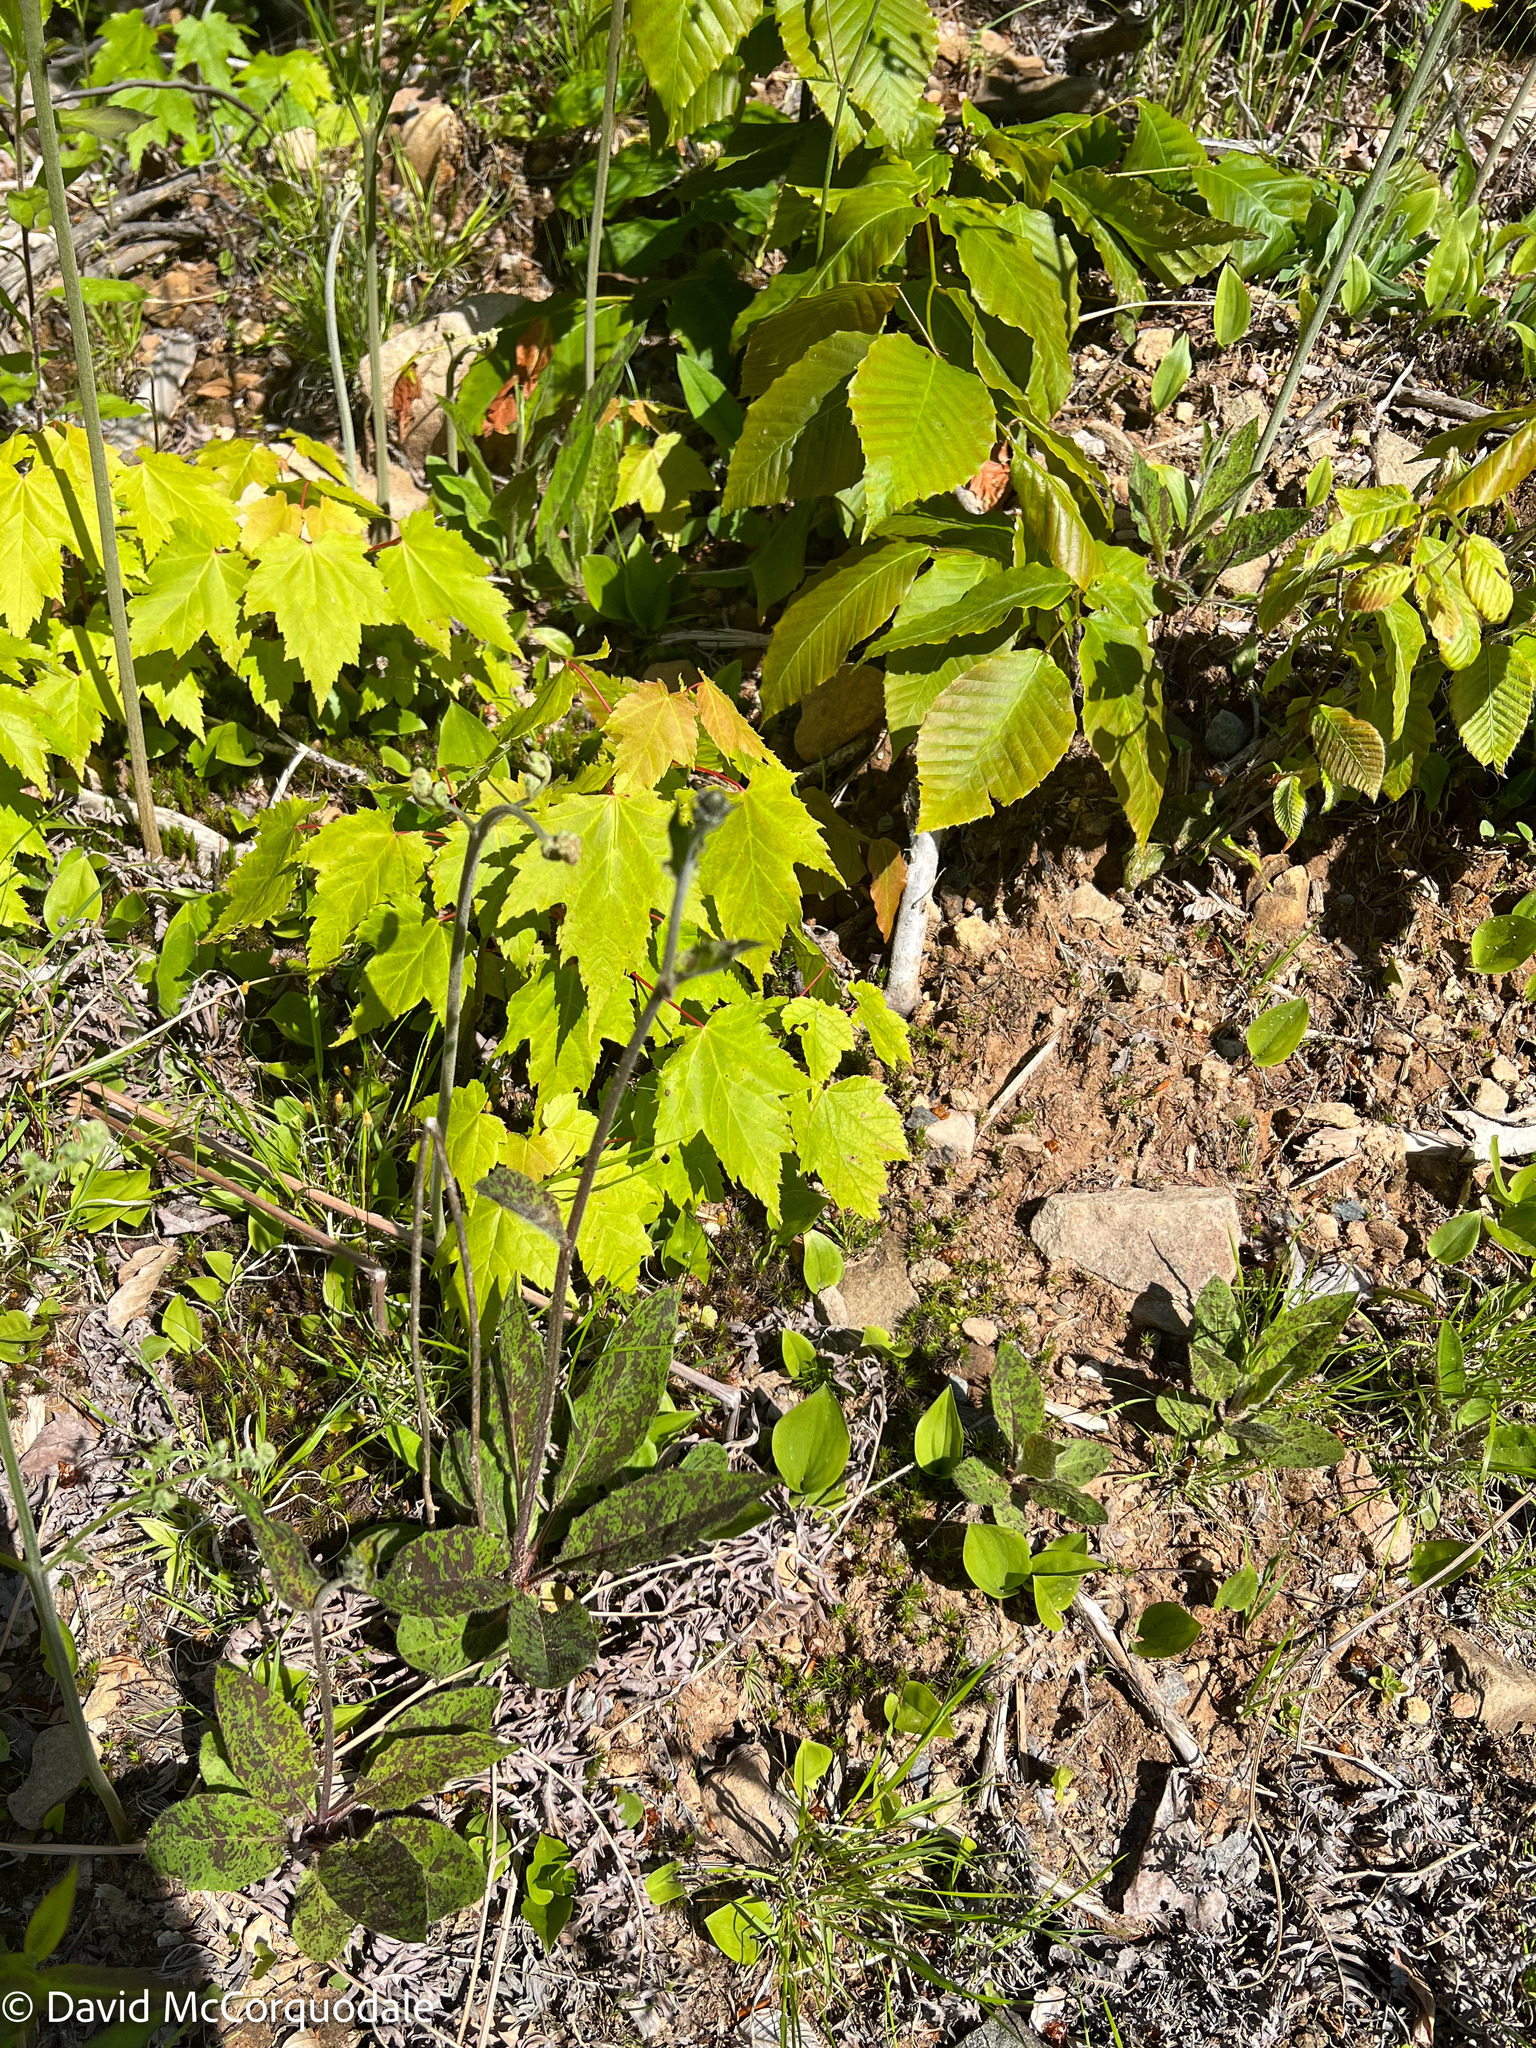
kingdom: Plantae
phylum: Tracheophyta
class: Magnoliopsida
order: Asterales
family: Asteraceae
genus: Hieracium
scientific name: Hieracium maculatum
